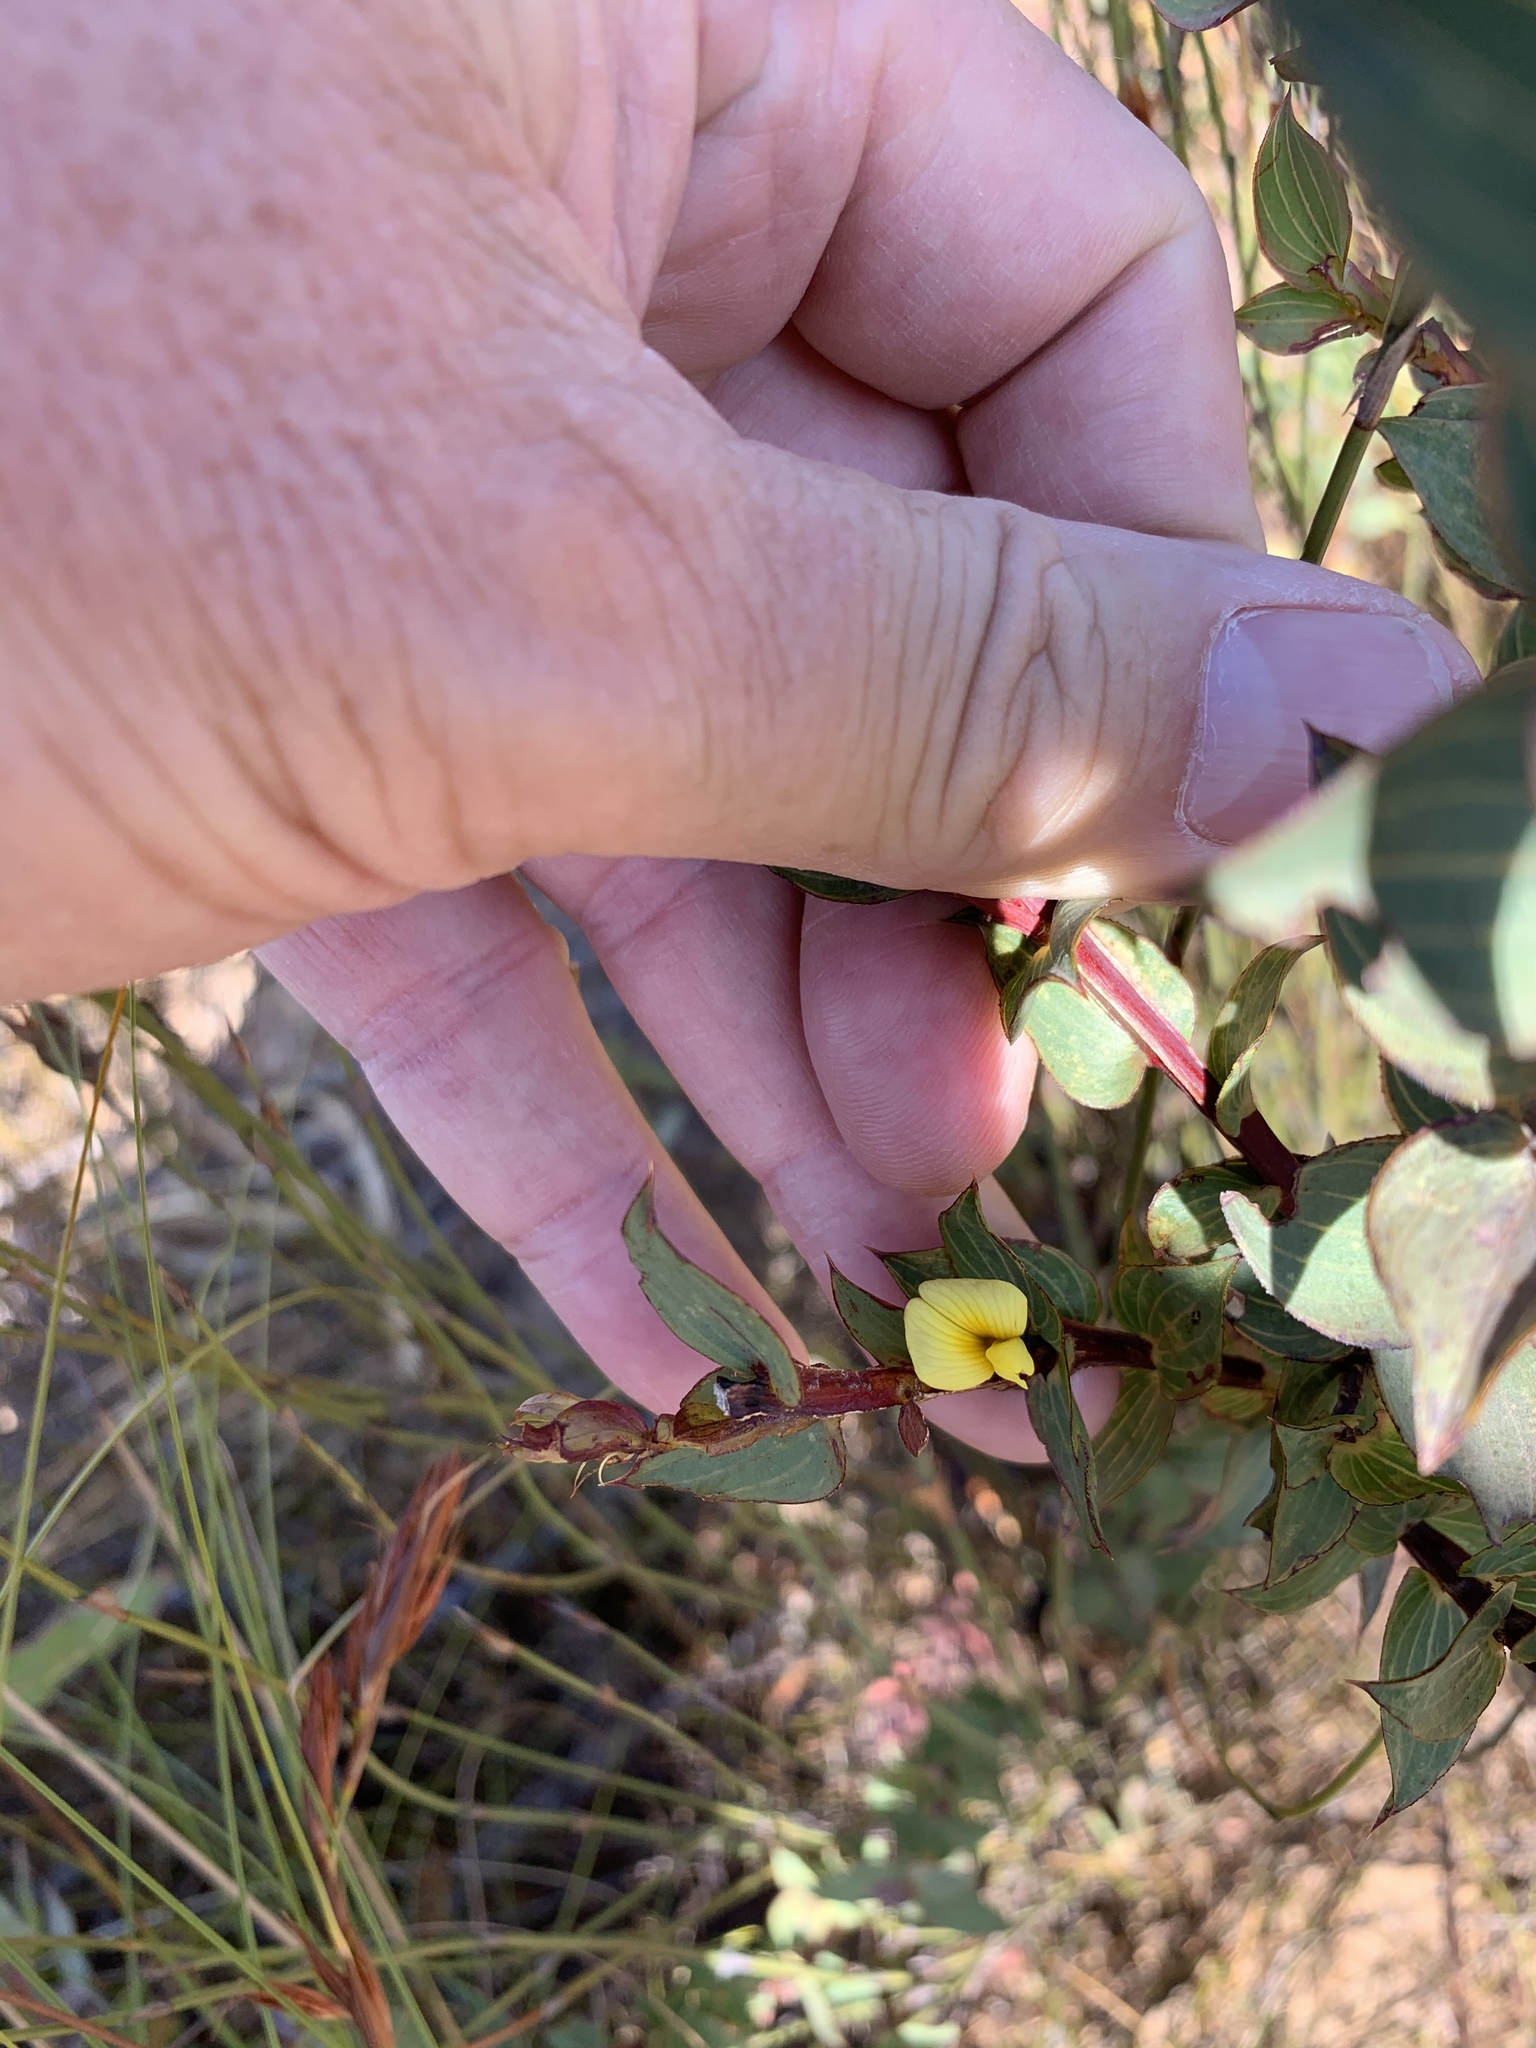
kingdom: Plantae
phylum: Tracheophyta
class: Magnoliopsida
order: Fabales
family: Fabaceae
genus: Aspalathus
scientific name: Aspalathus crenata
